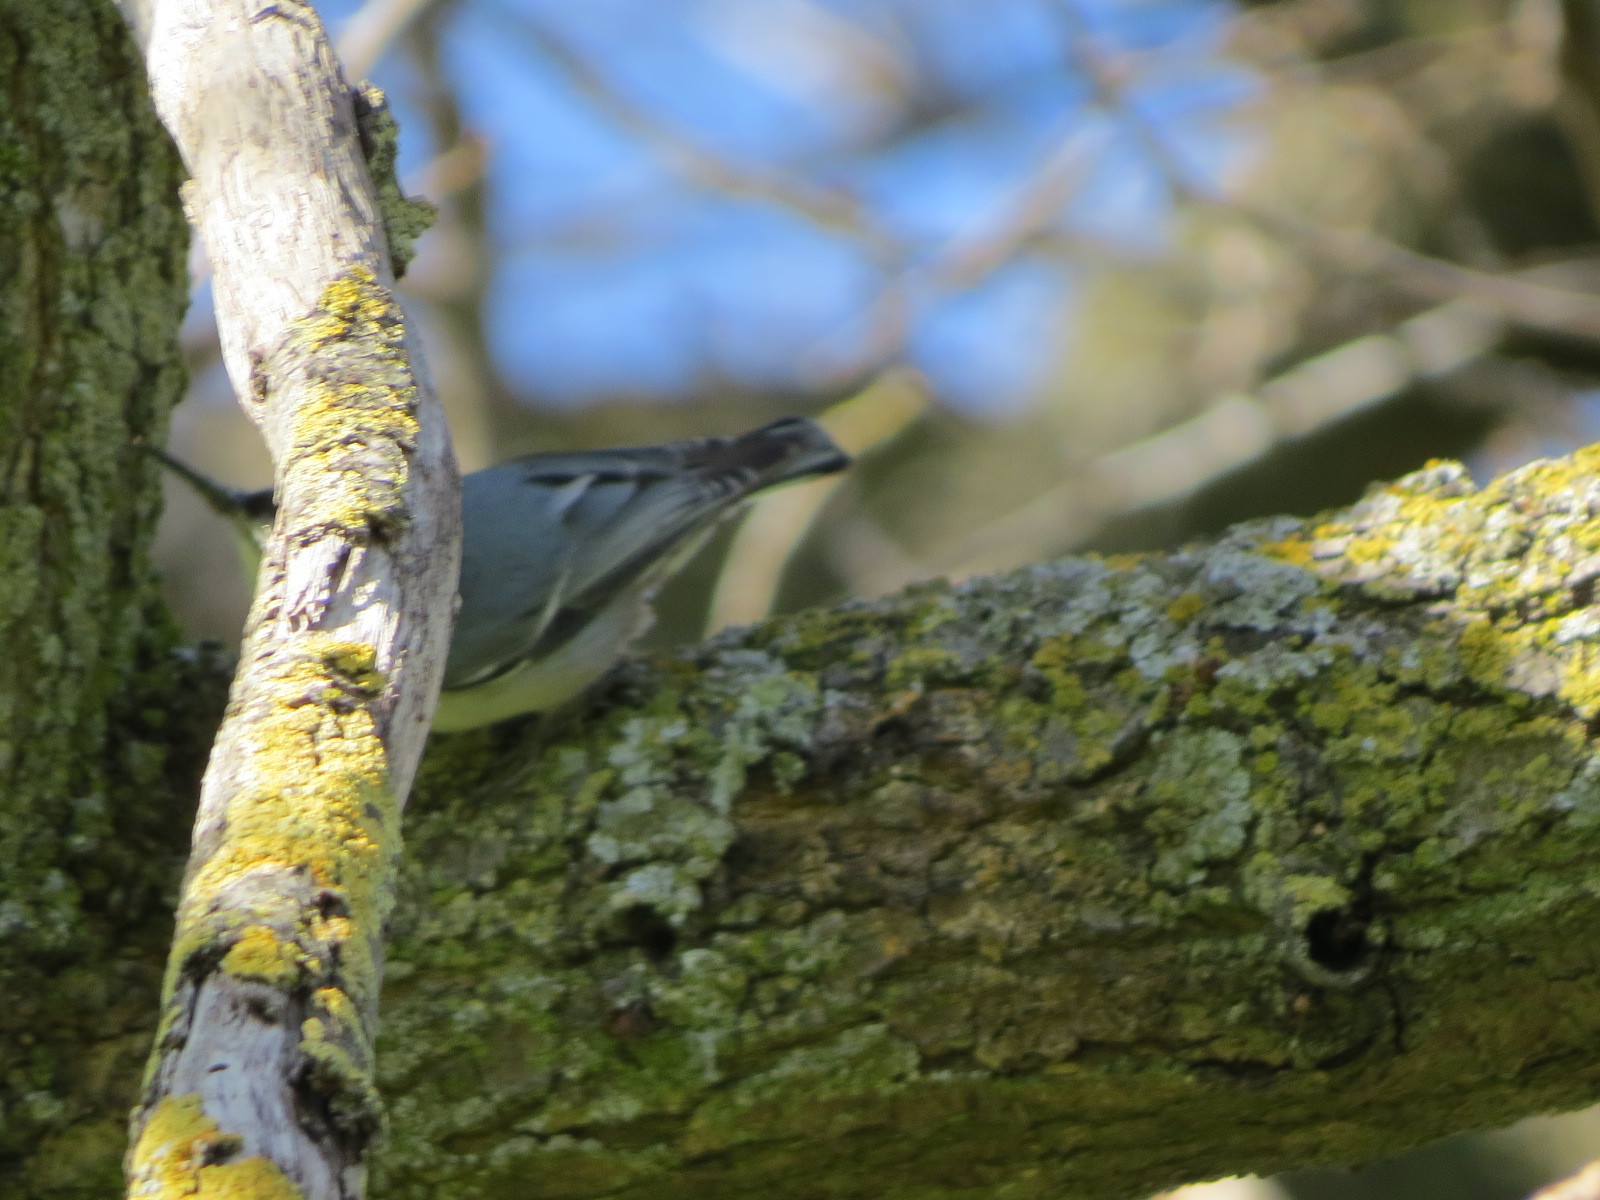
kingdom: Animalia
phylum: Chordata
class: Aves
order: Passeriformes
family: Sittidae
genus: Sitta
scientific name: Sitta carolinensis
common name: White-breasted nuthatch
